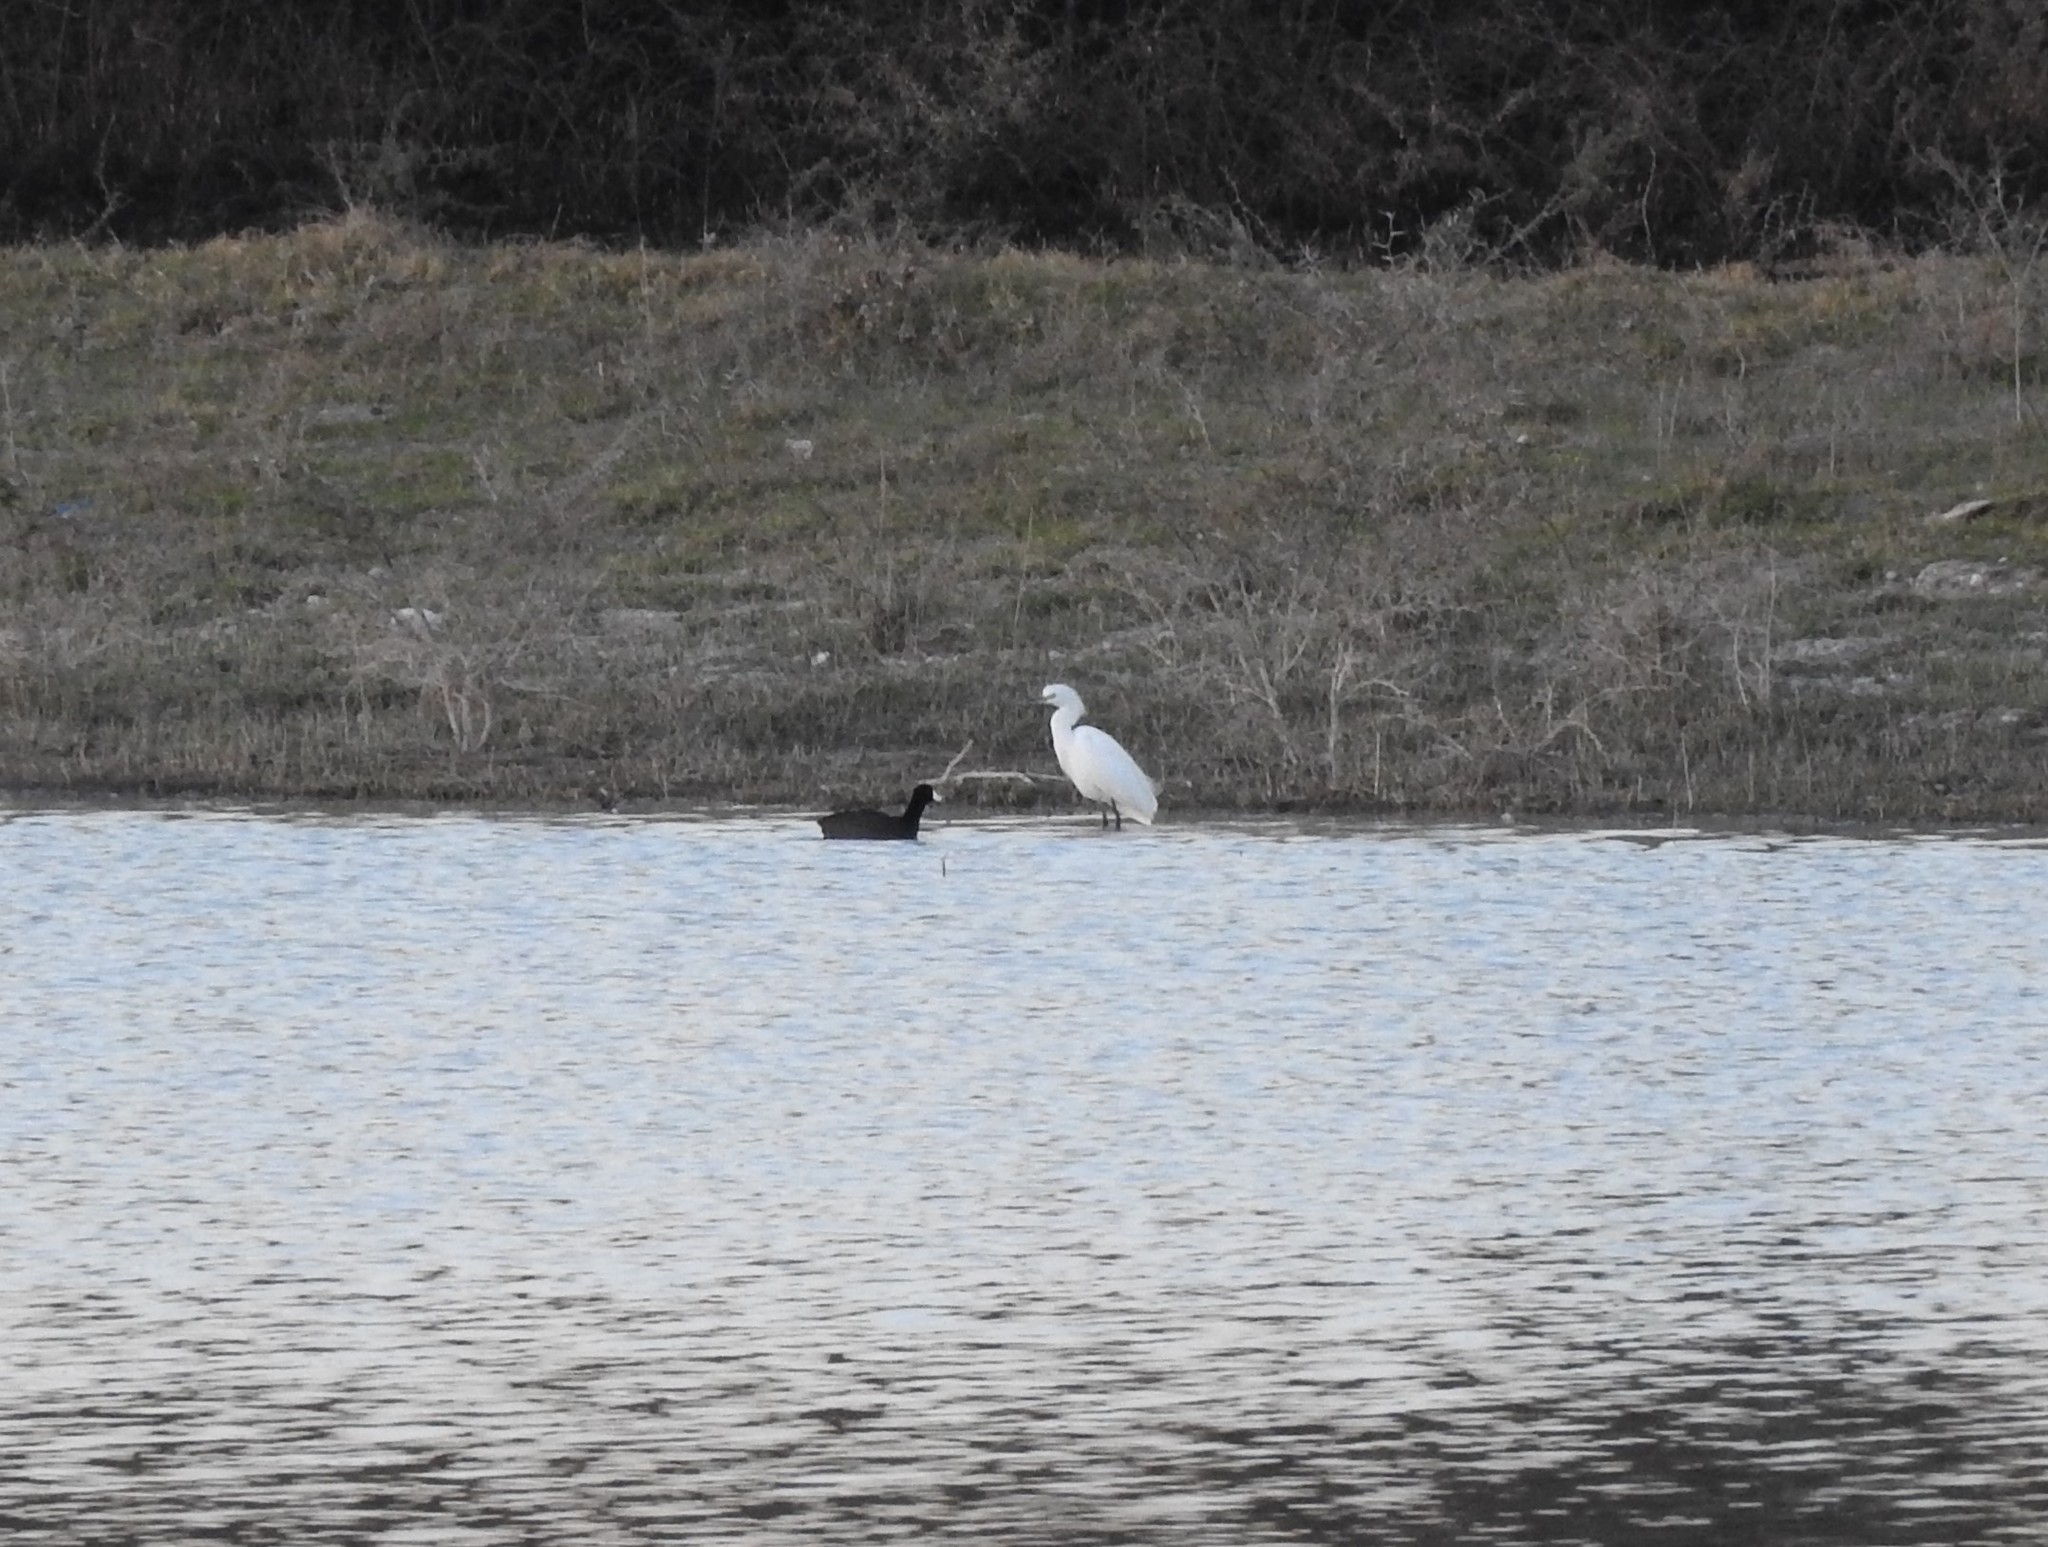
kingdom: Animalia
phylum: Chordata
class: Aves
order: Pelecaniformes
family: Ardeidae
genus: Egretta
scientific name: Egretta thula
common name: Snowy egret
